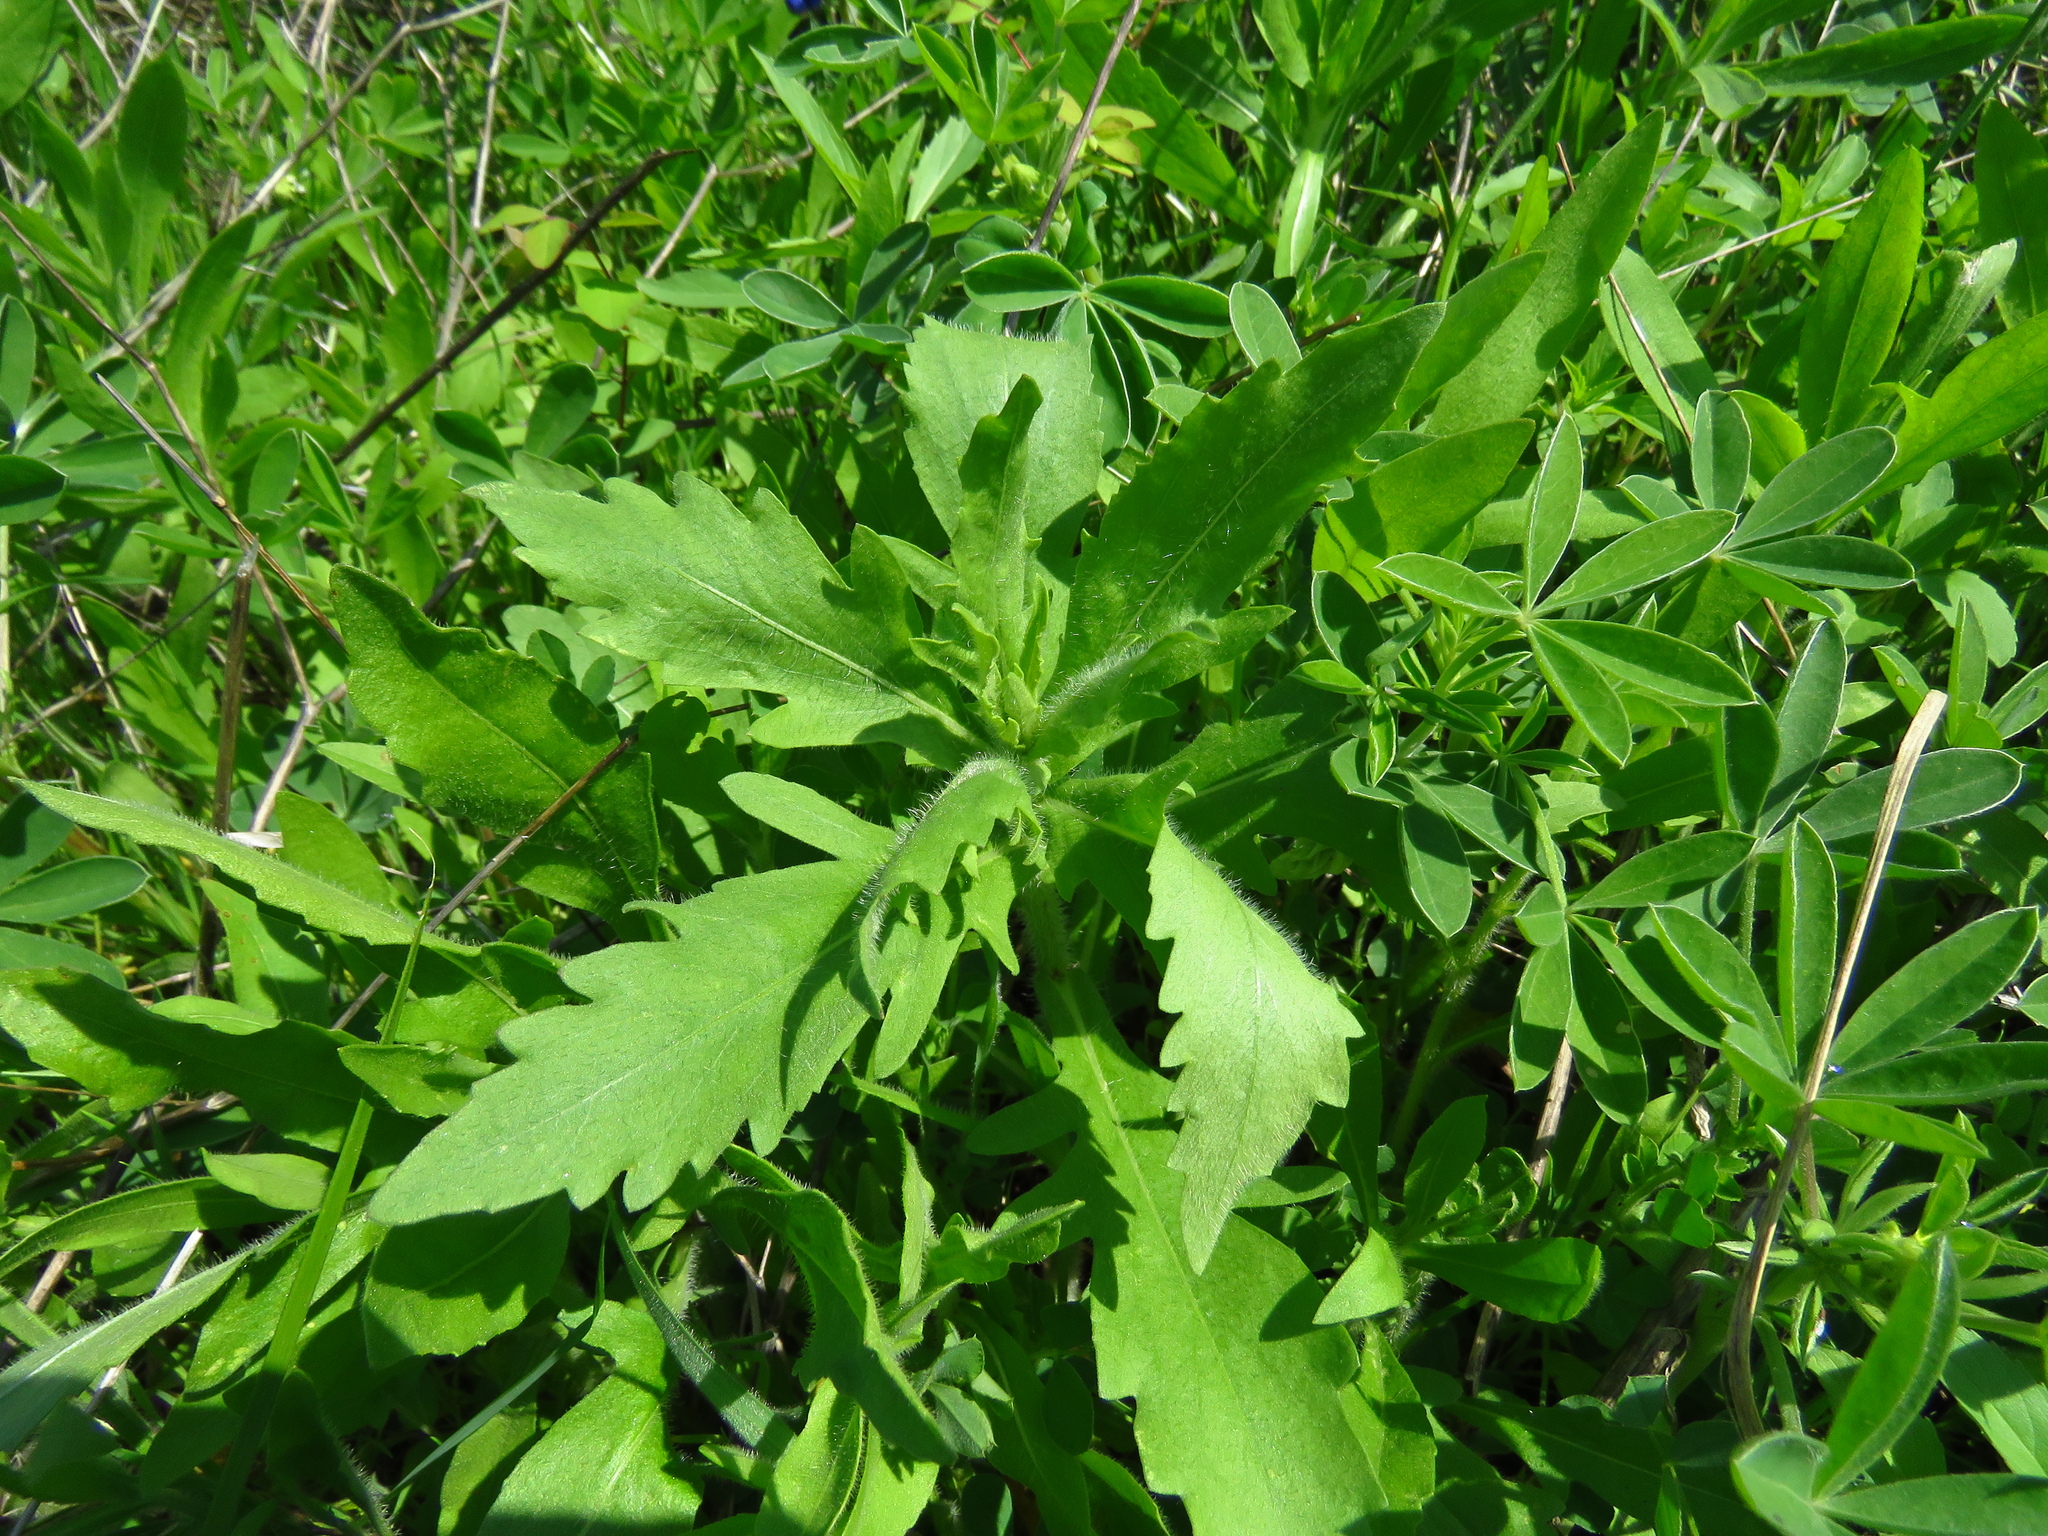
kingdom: Plantae
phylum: Tracheophyta
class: Magnoliopsida
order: Asterales
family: Asteraceae
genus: Engelmannia
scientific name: Engelmannia peristenia
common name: Engelmann's daisy
